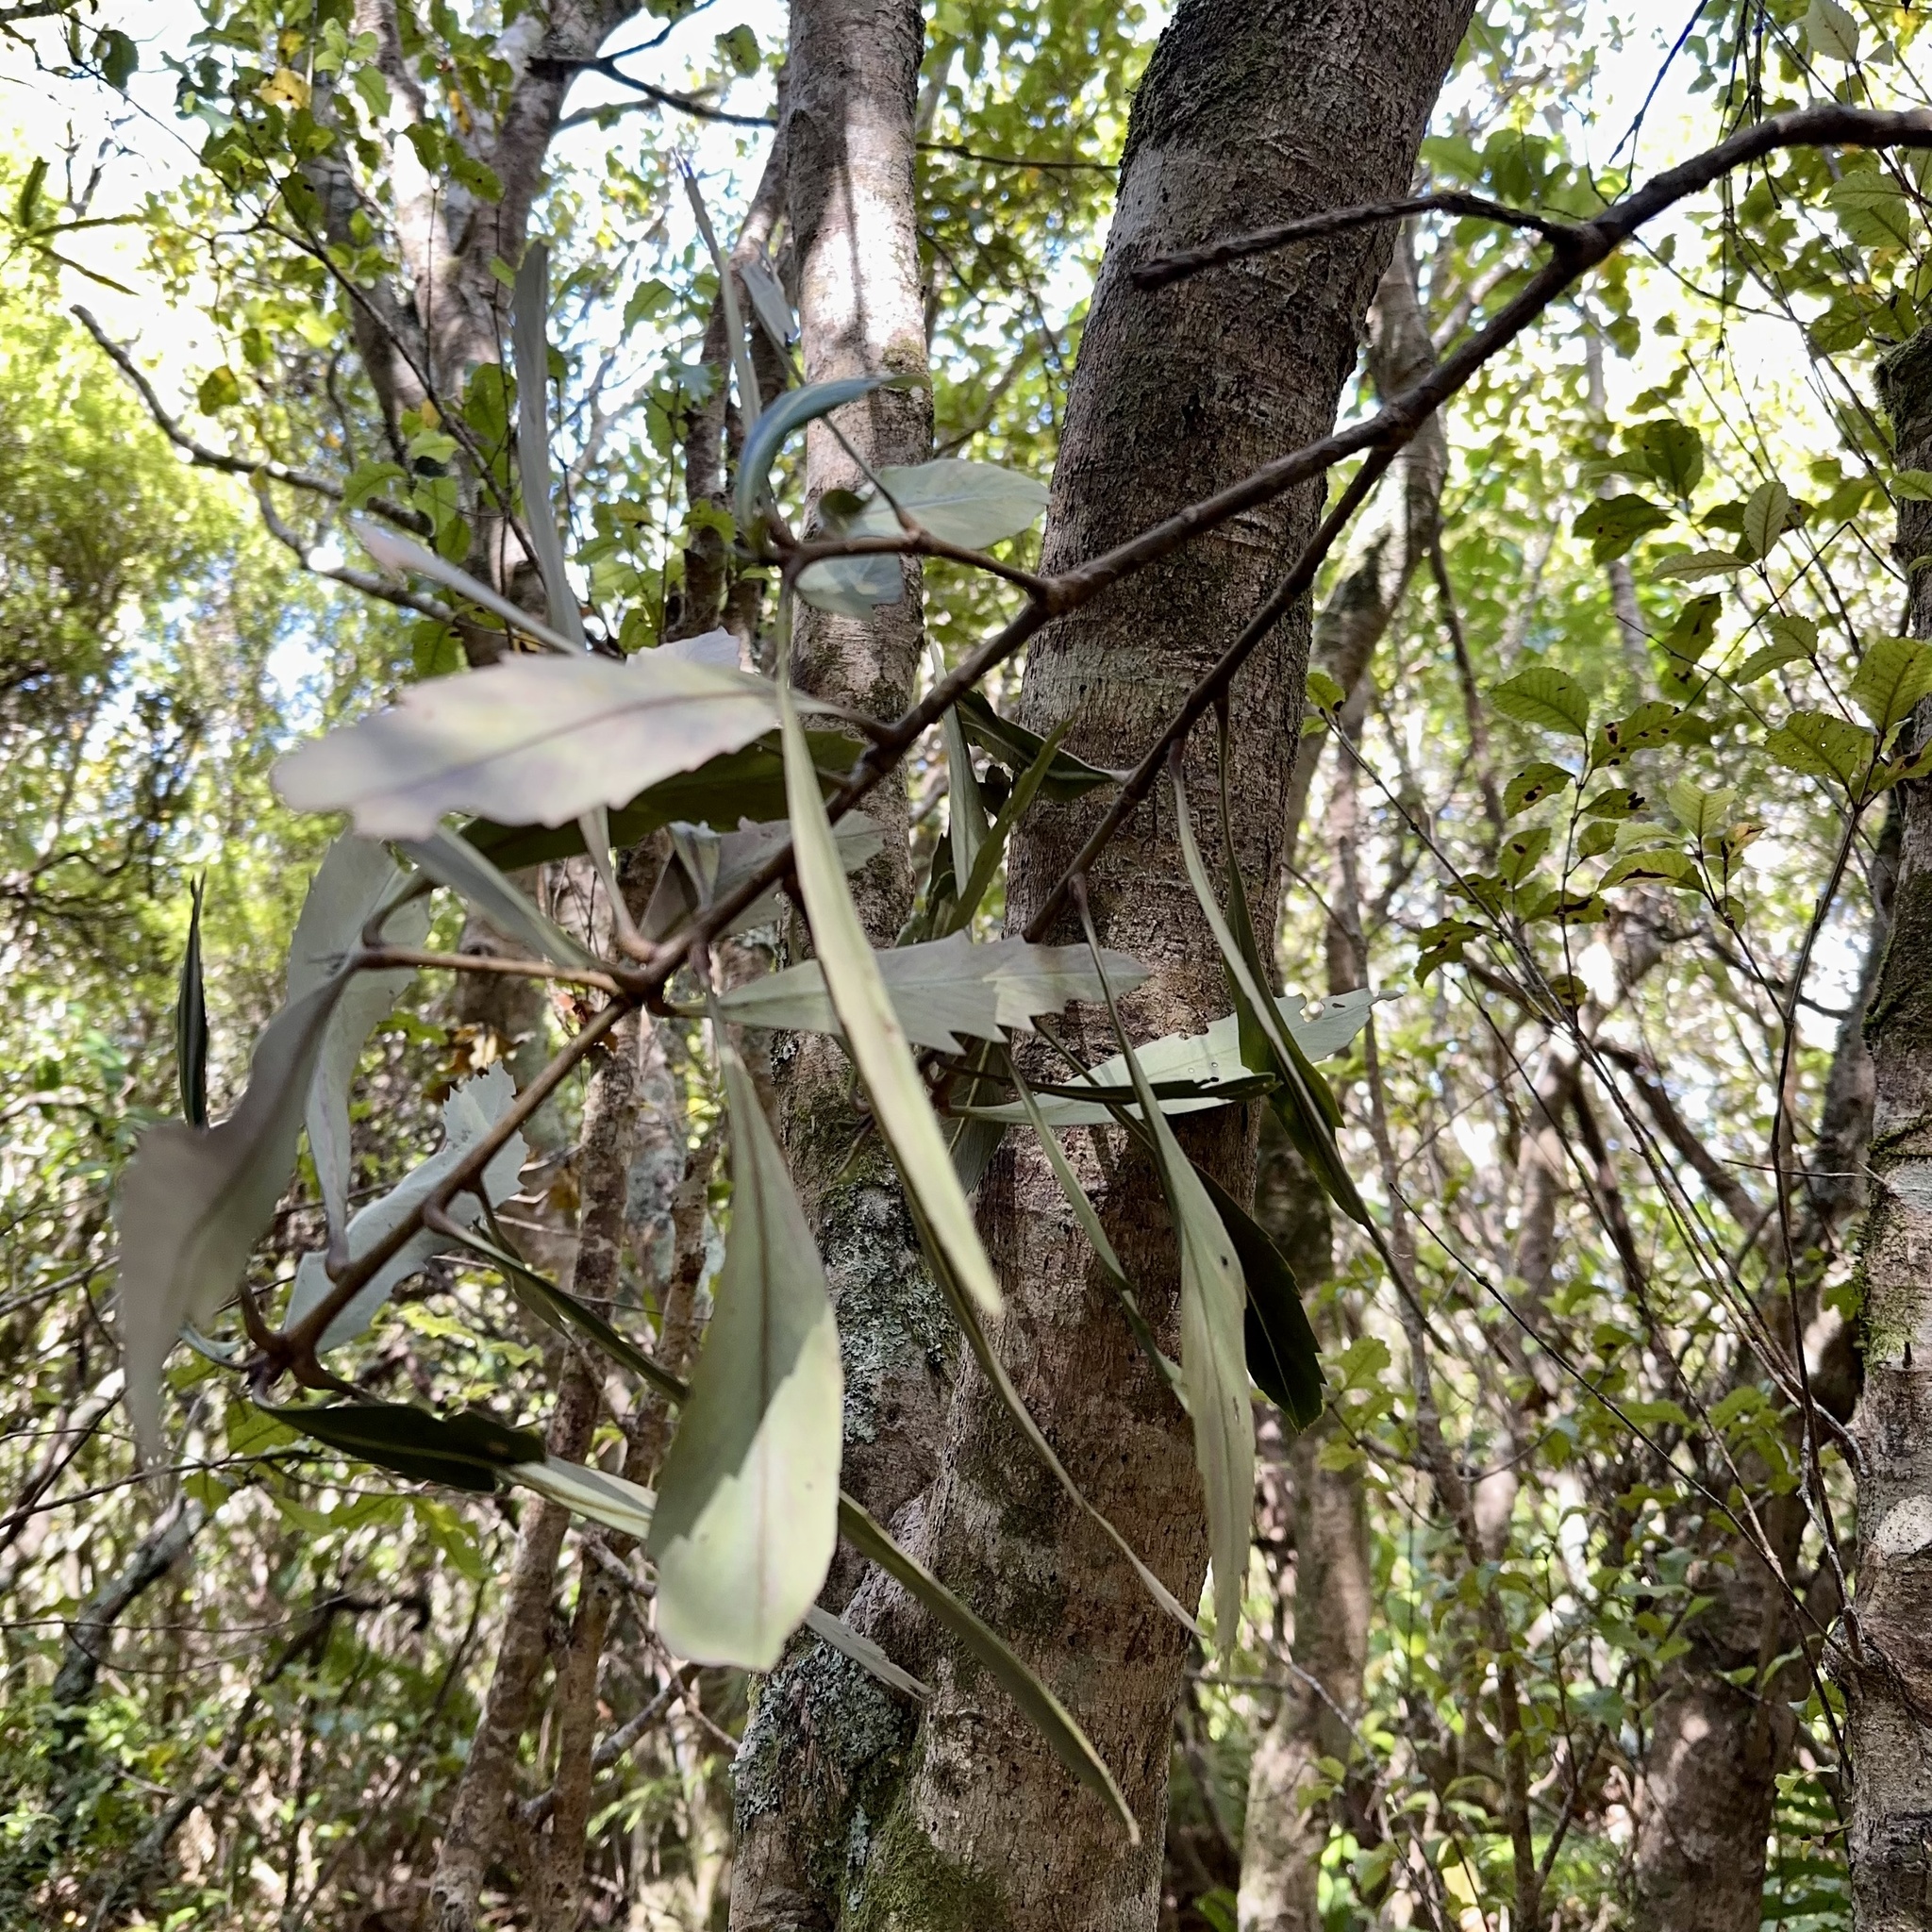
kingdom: Plantae
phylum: Tracheophyta
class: Magnoliopsida
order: Apiales
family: Araliaceae
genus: Pseudopanax
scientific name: Pseudopanax crassifolius
